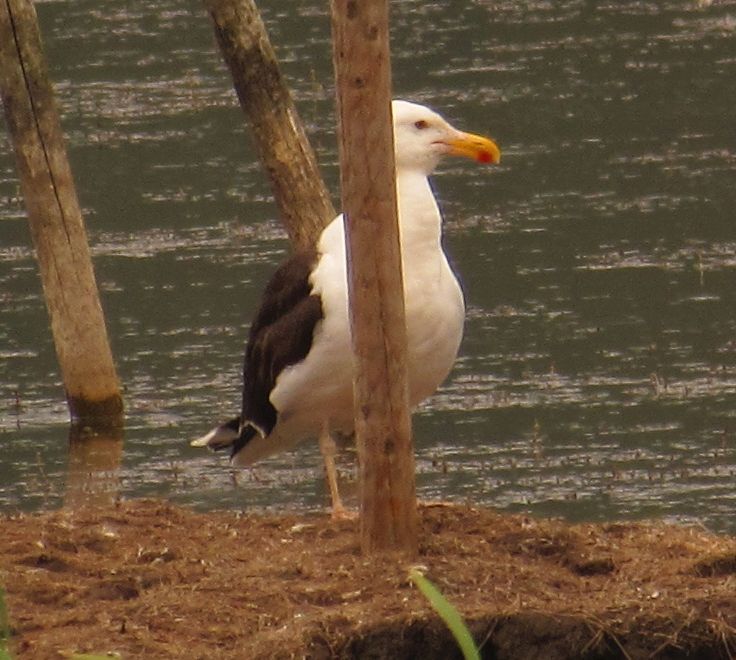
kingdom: Animalia
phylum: Chordata
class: Aves
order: Charadriiformes
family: Laridae
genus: Larus
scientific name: Larus marinus
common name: Great black-backed gull
